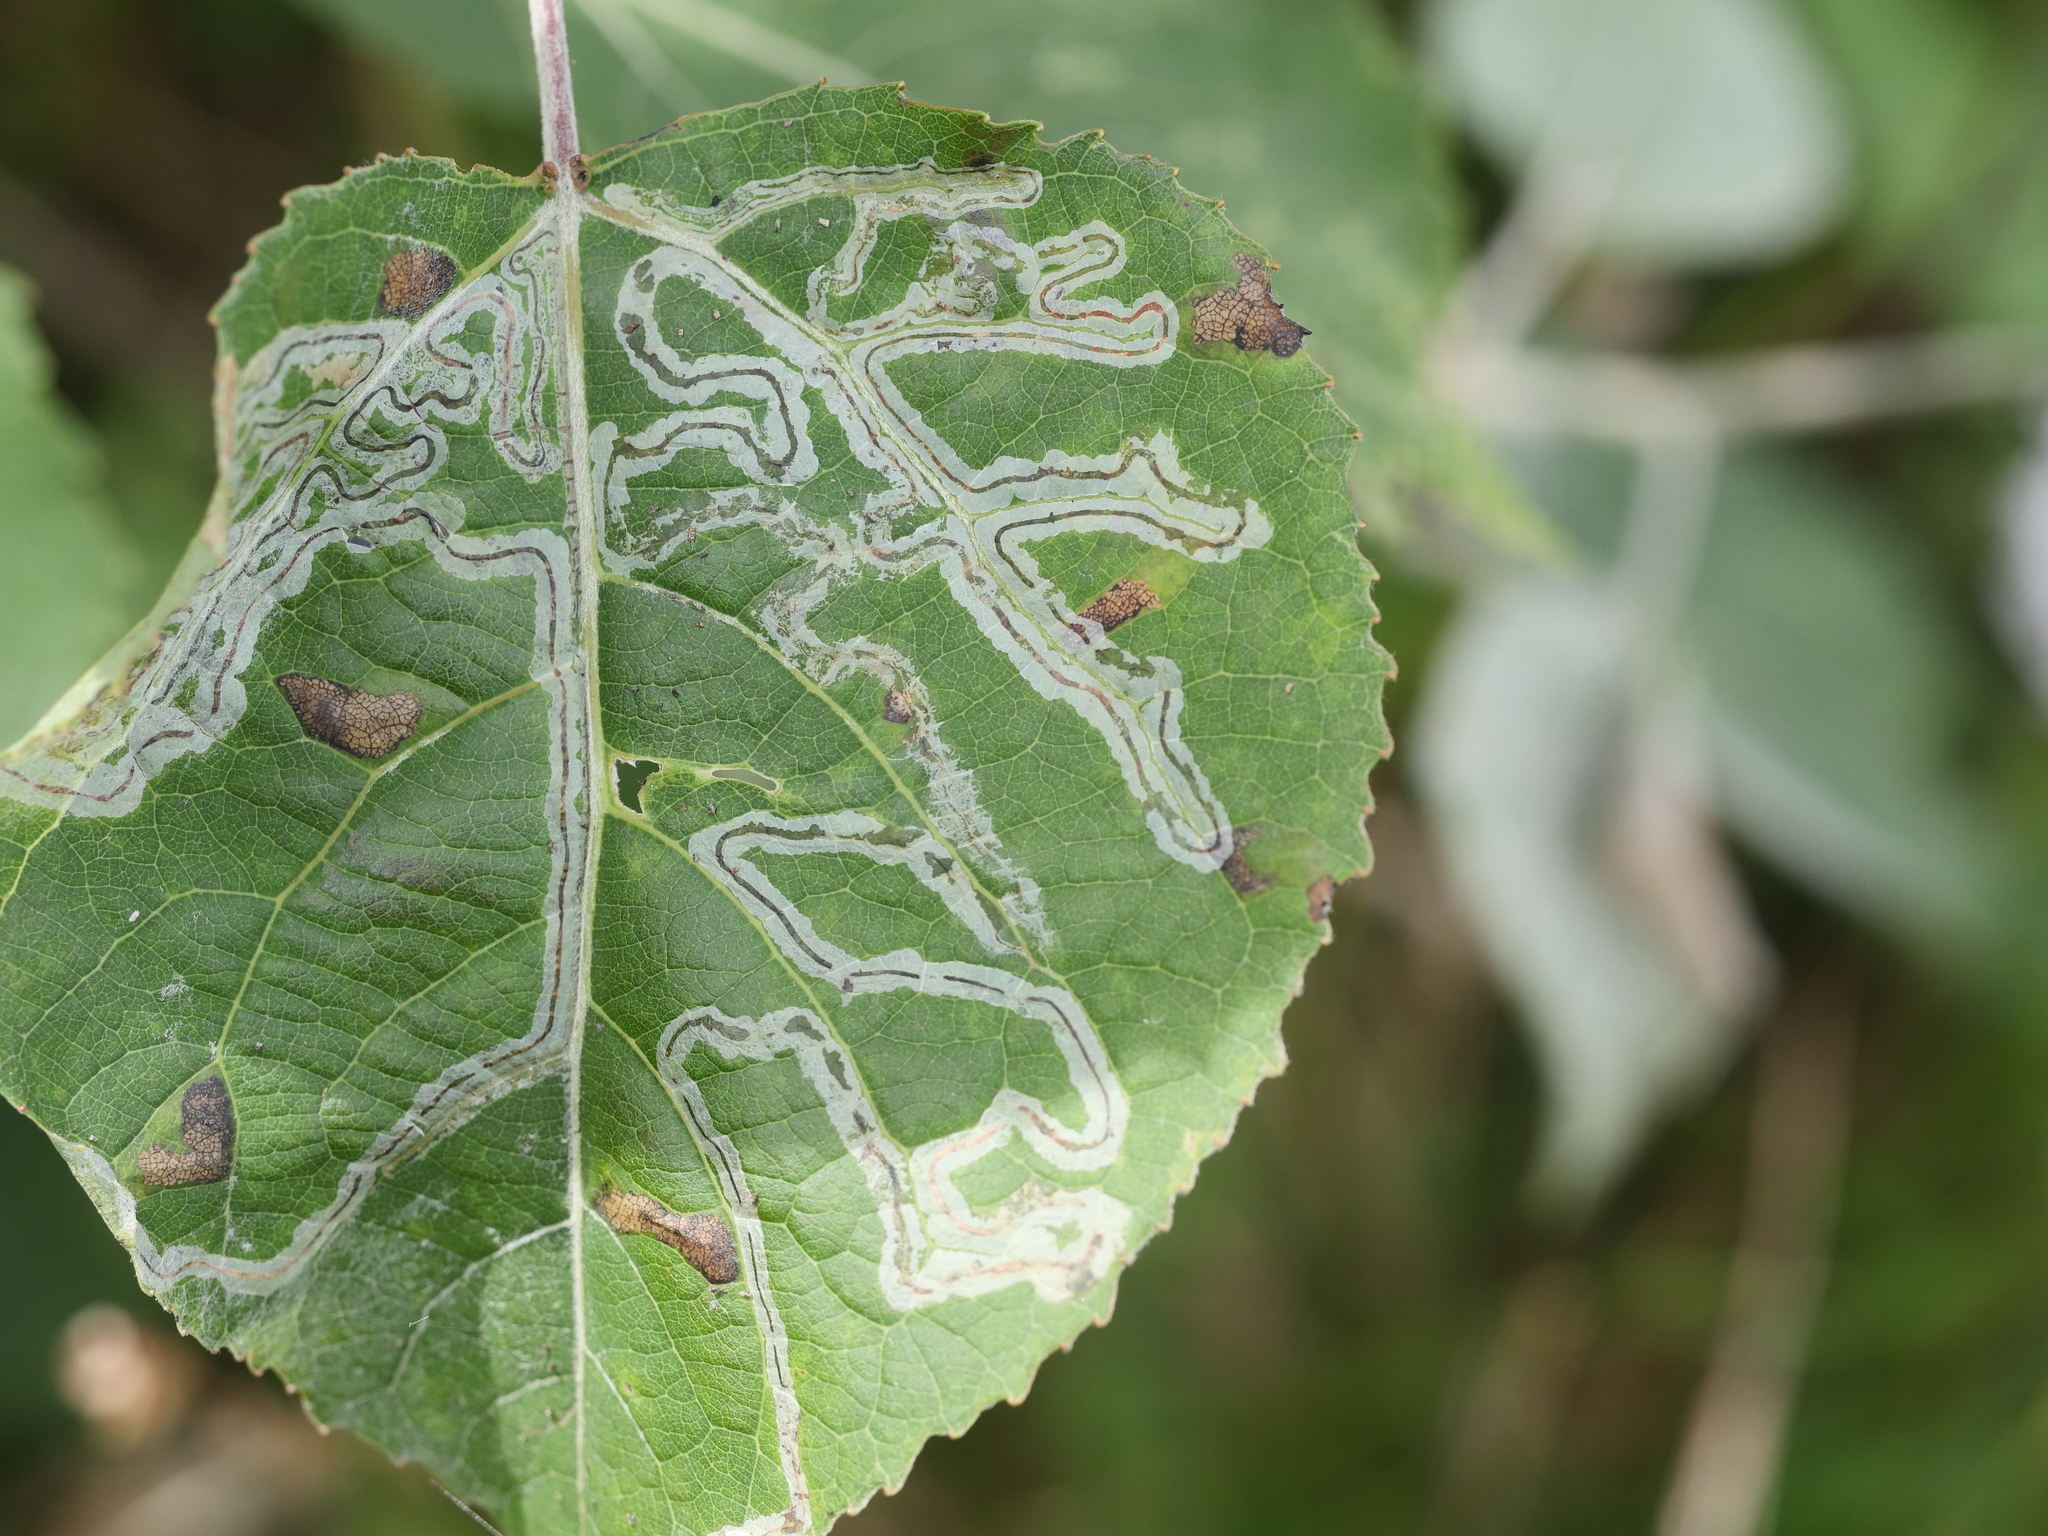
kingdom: Animalia
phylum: Arthropoda
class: Insecta
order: Lepidoptera
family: Gracillariidae
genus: Phyllocnistis
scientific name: Phyllocnistis populiella
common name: Aspen serpentine leafminer moth
